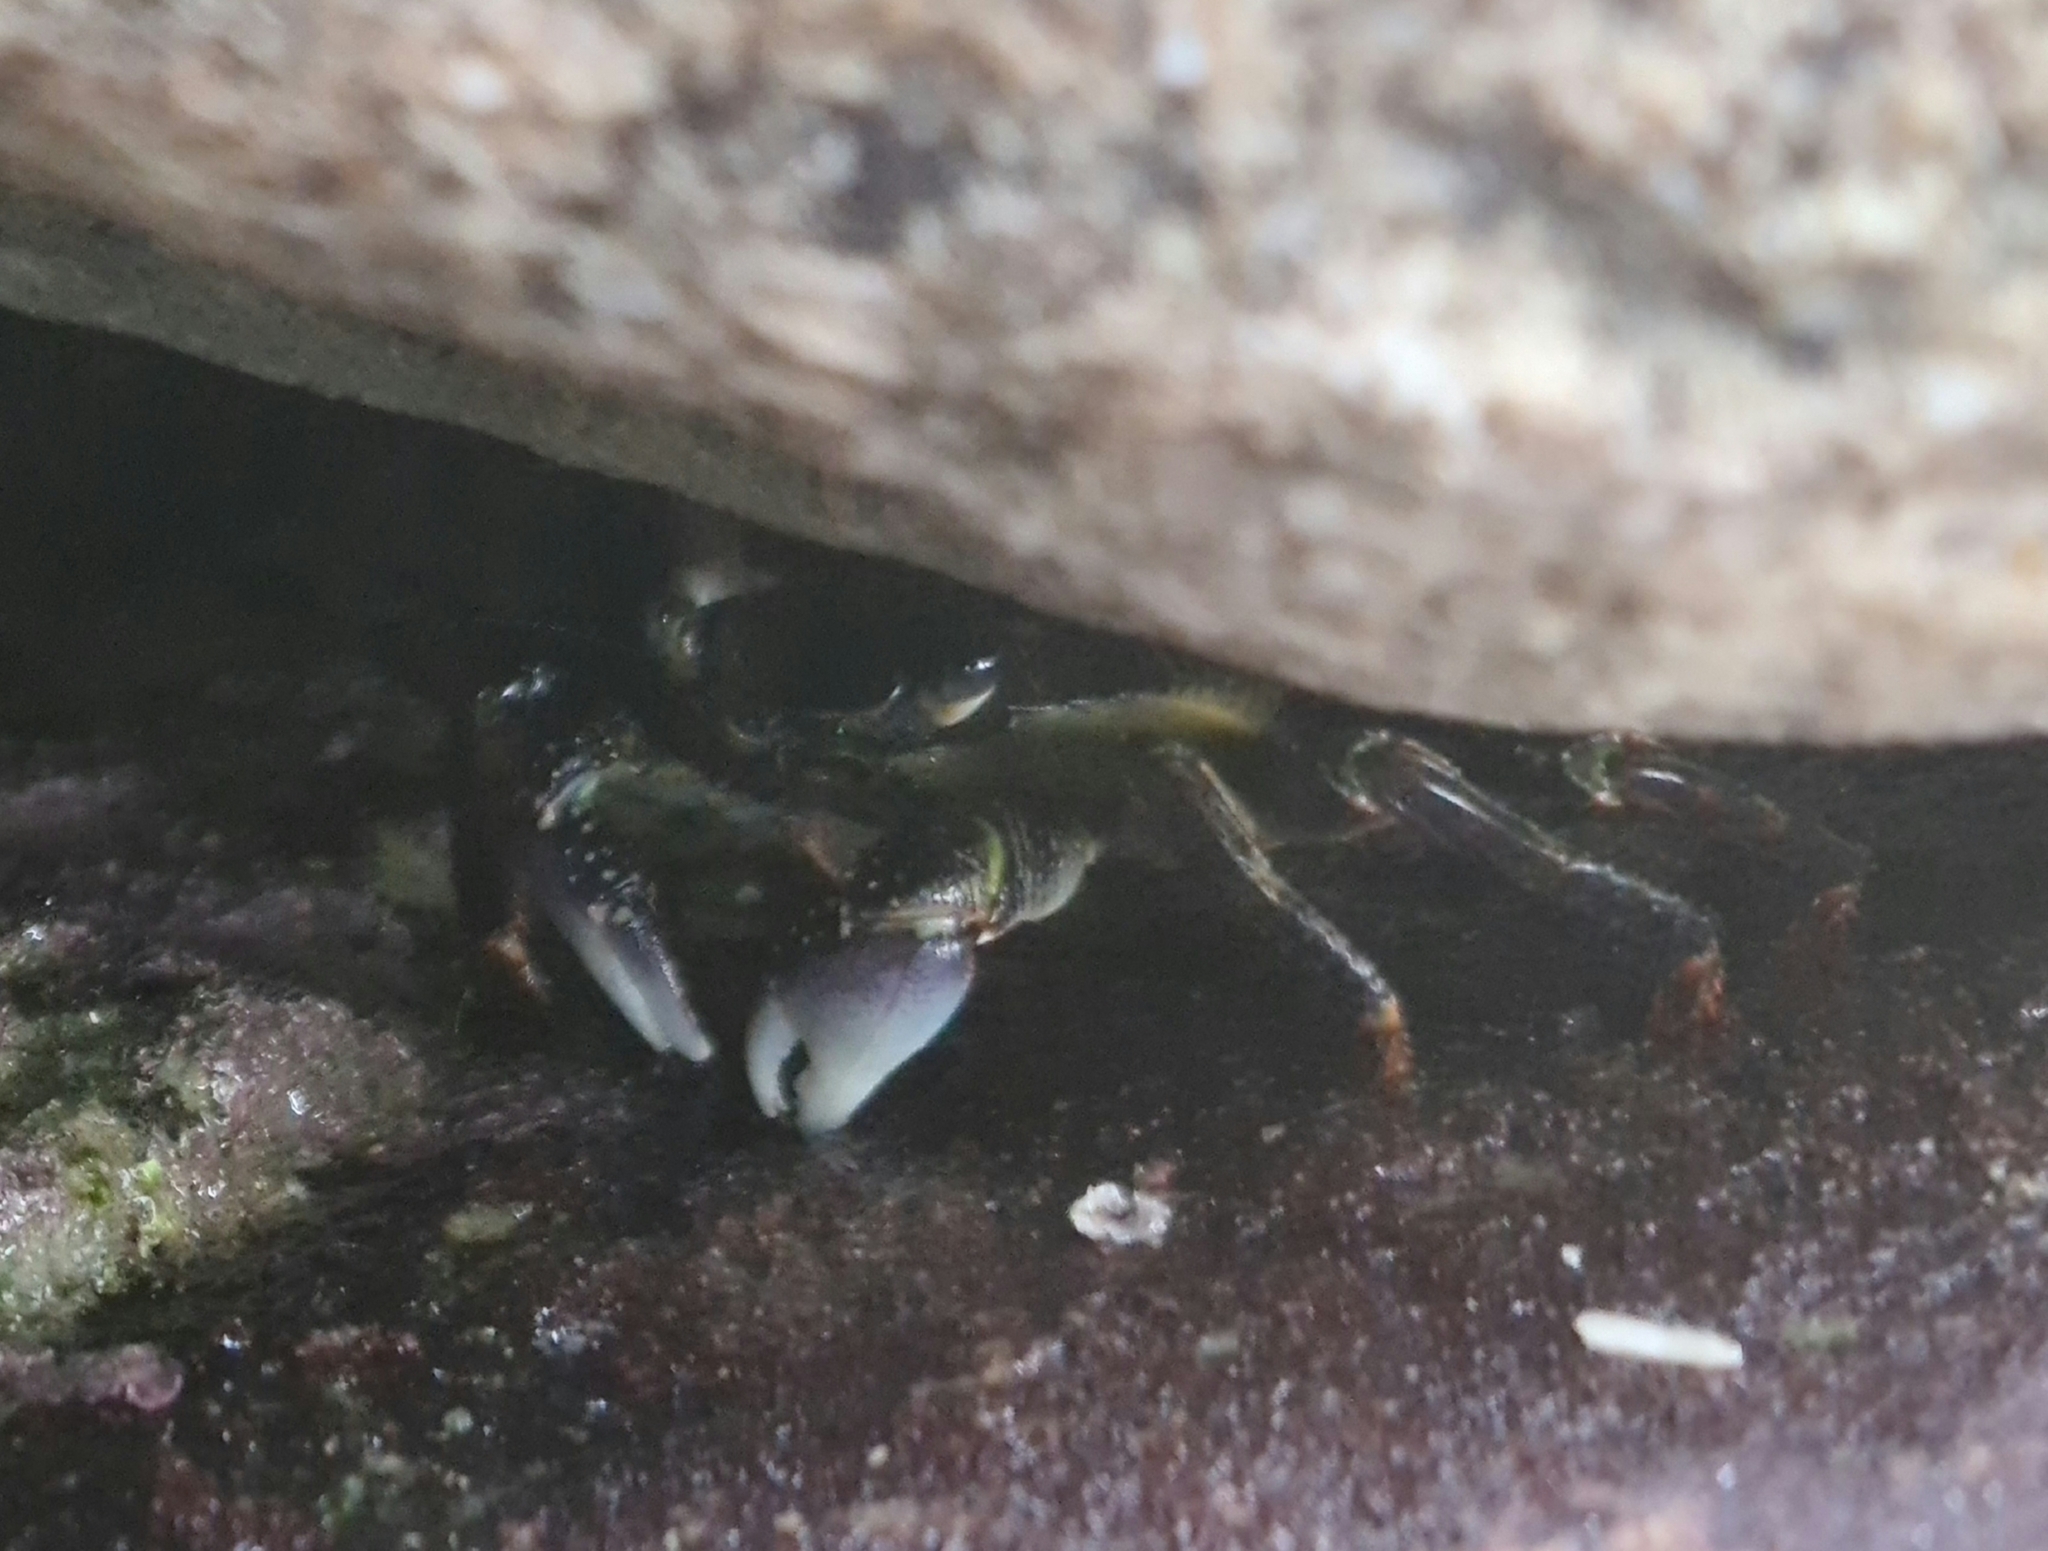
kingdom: Animalia
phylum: Arthropoda
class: Malacostraca
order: Decapoda
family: Grapsidae
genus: Leptograpsus
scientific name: Leptograpsus variegatus
